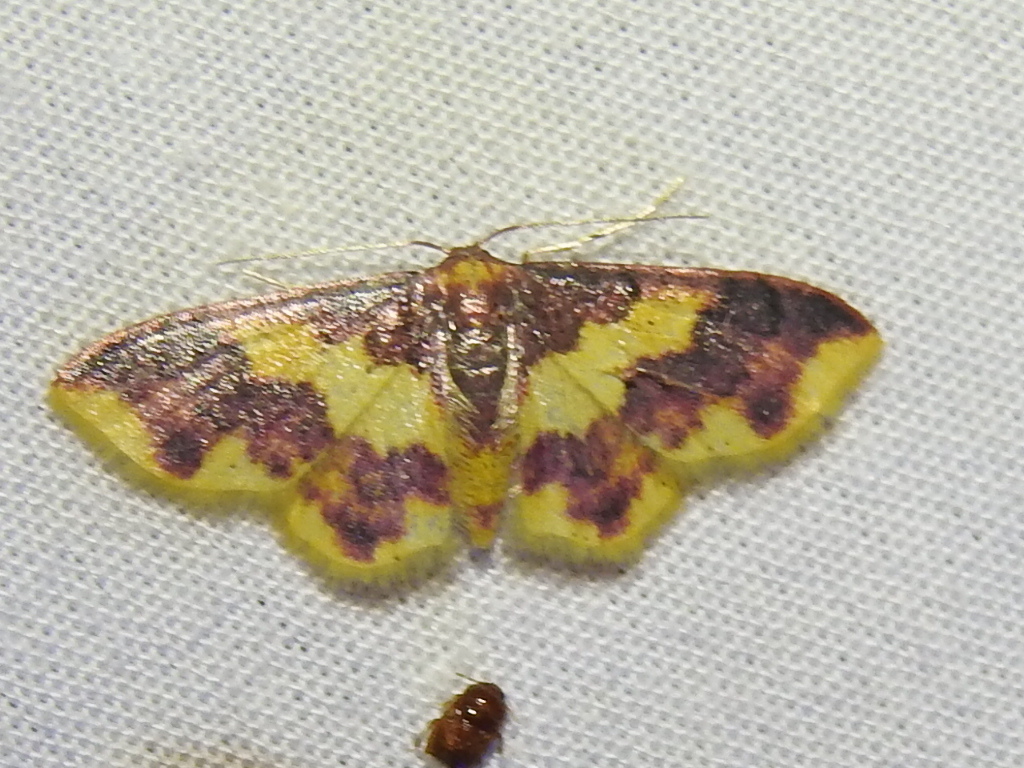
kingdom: Animalia
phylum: Arthropoda
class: Insecta
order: Lepidoptera
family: Geometridae
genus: Lophosis
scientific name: Lophosis labeculata
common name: Stained lophosis moth
